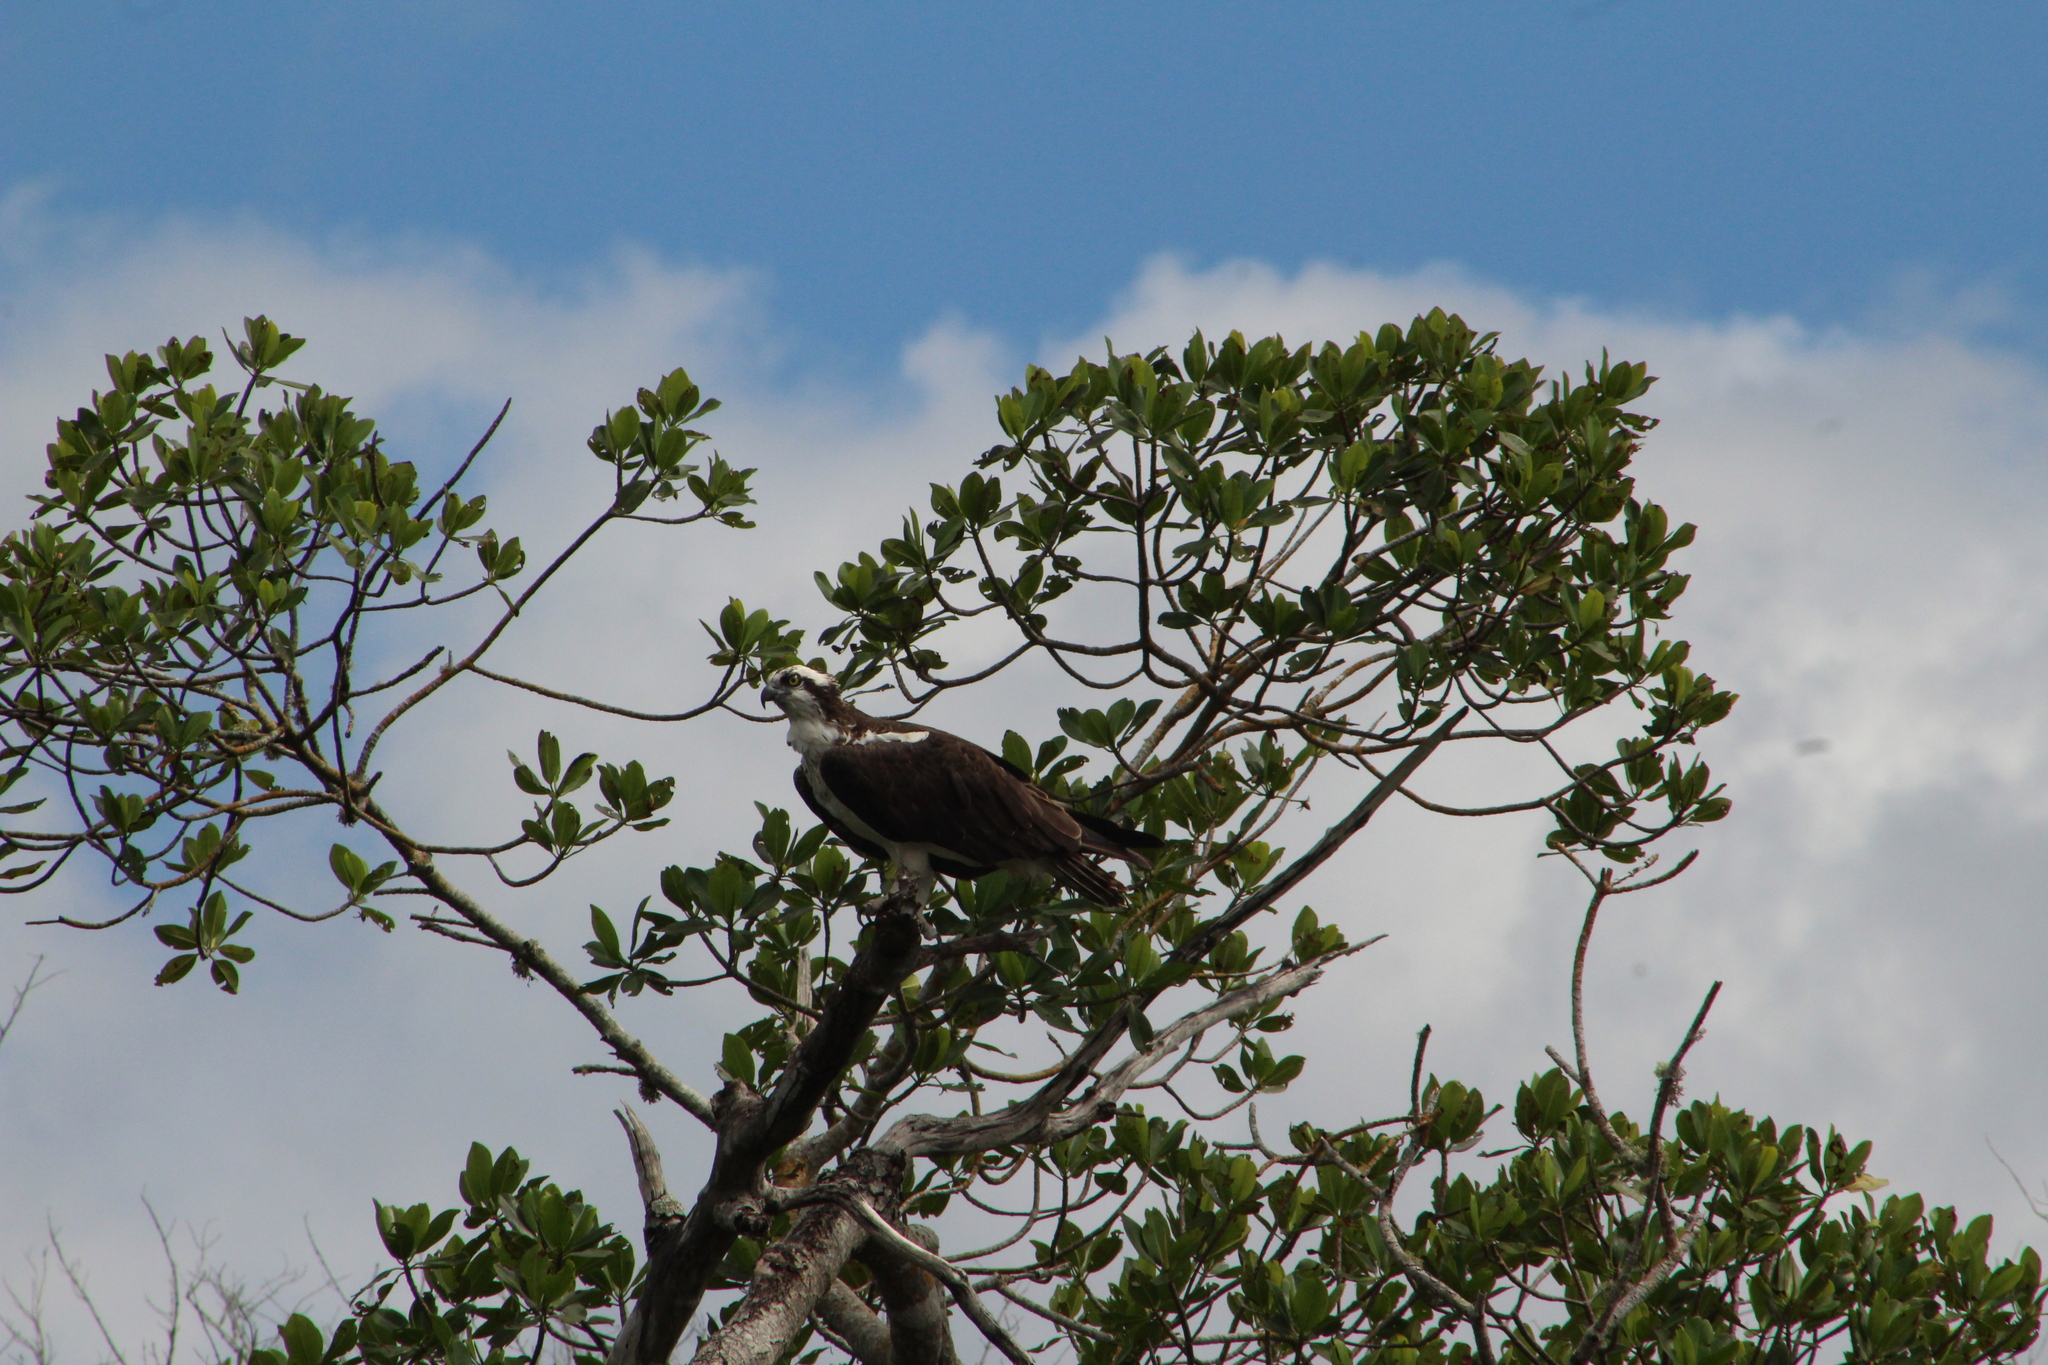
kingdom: Animalia
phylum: Chordata
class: Aves
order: Accipitriformes
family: Pandionidae
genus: Pandion
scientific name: Pandion haliaetus
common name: Osprey
